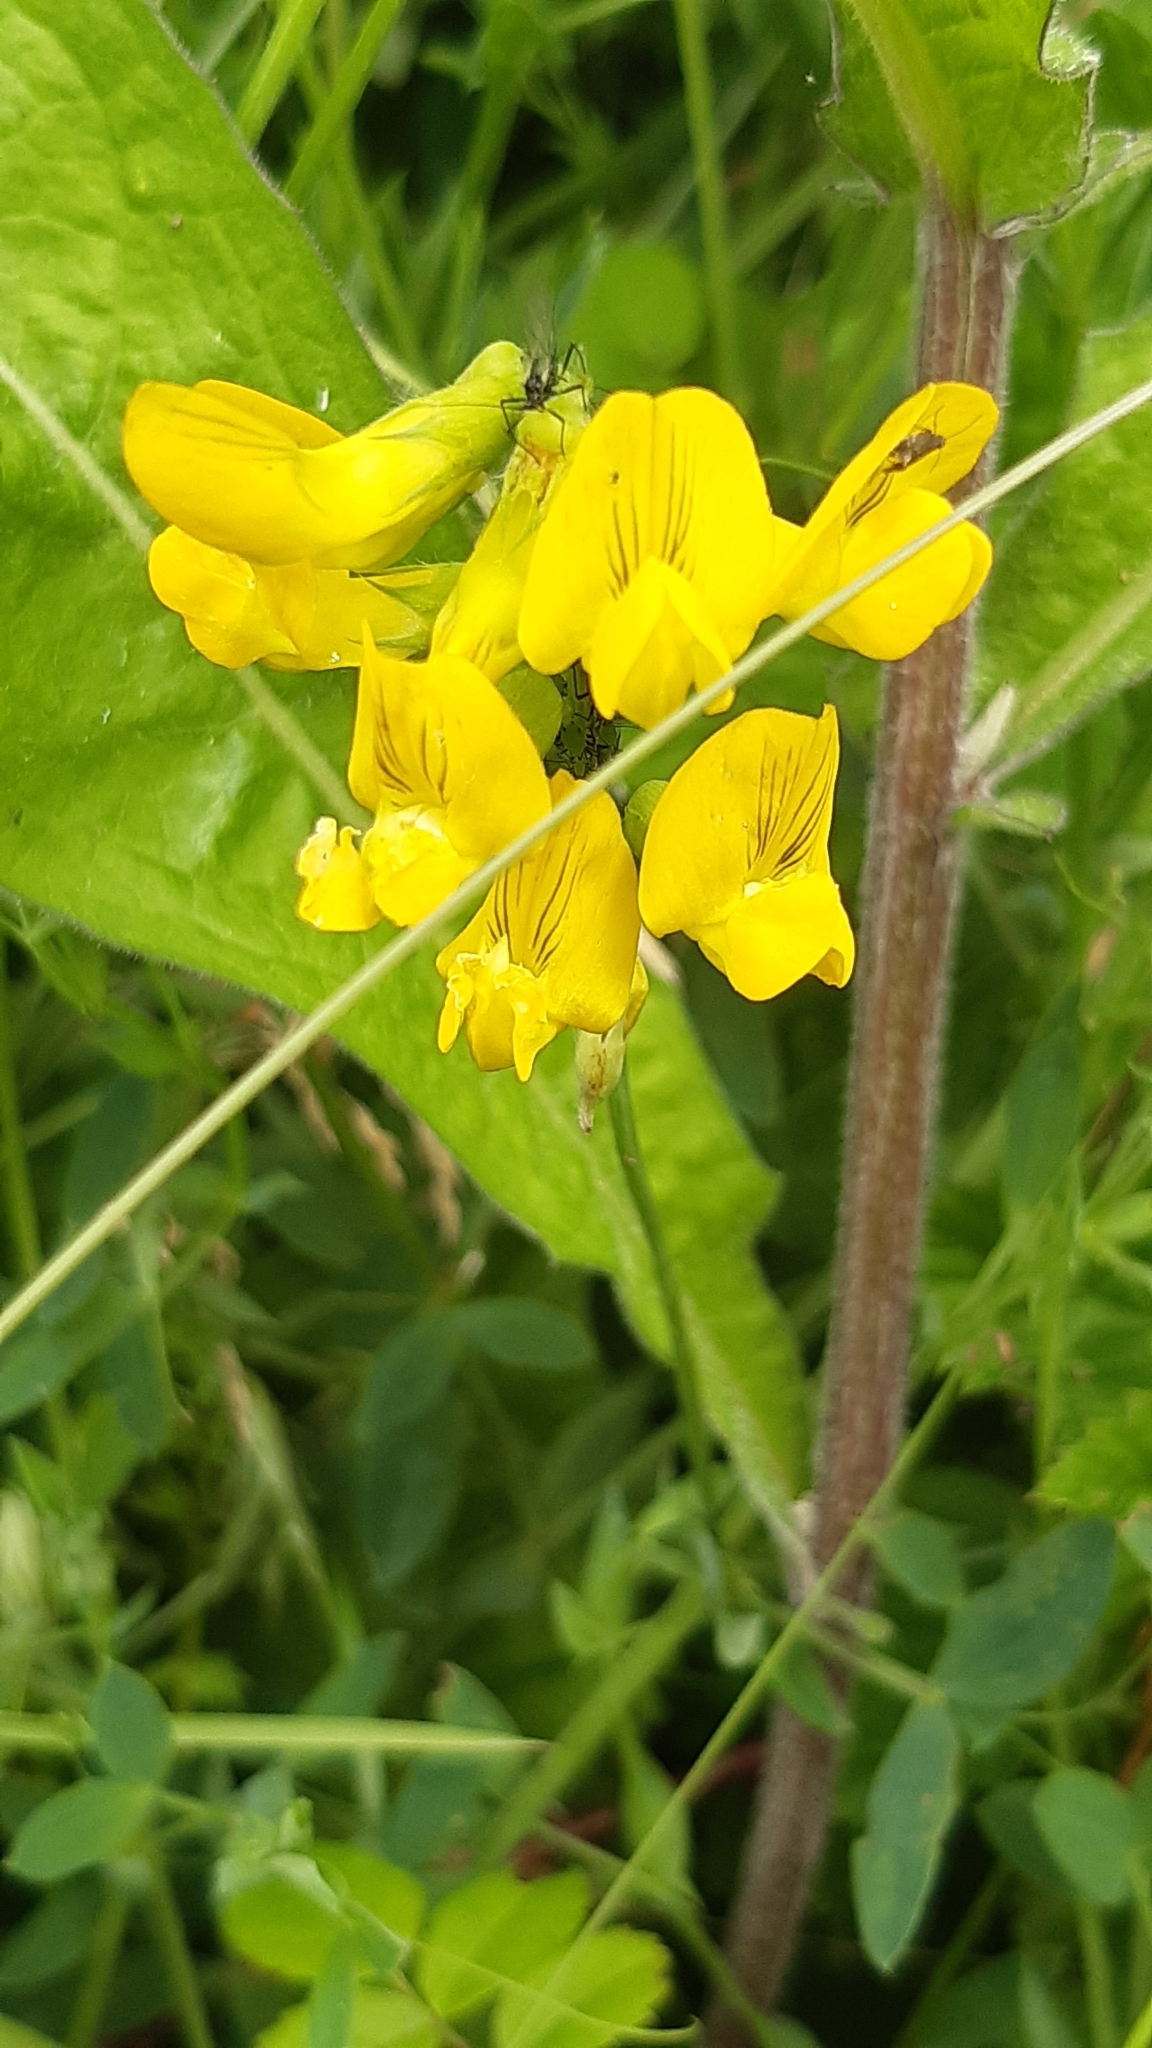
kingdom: Plantae
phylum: Tracheophyta
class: Magnoliopsida
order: Fabales
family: Fabaceae
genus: Lathyrus
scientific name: Lathyrus pratensis
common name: Meadow vetchling
